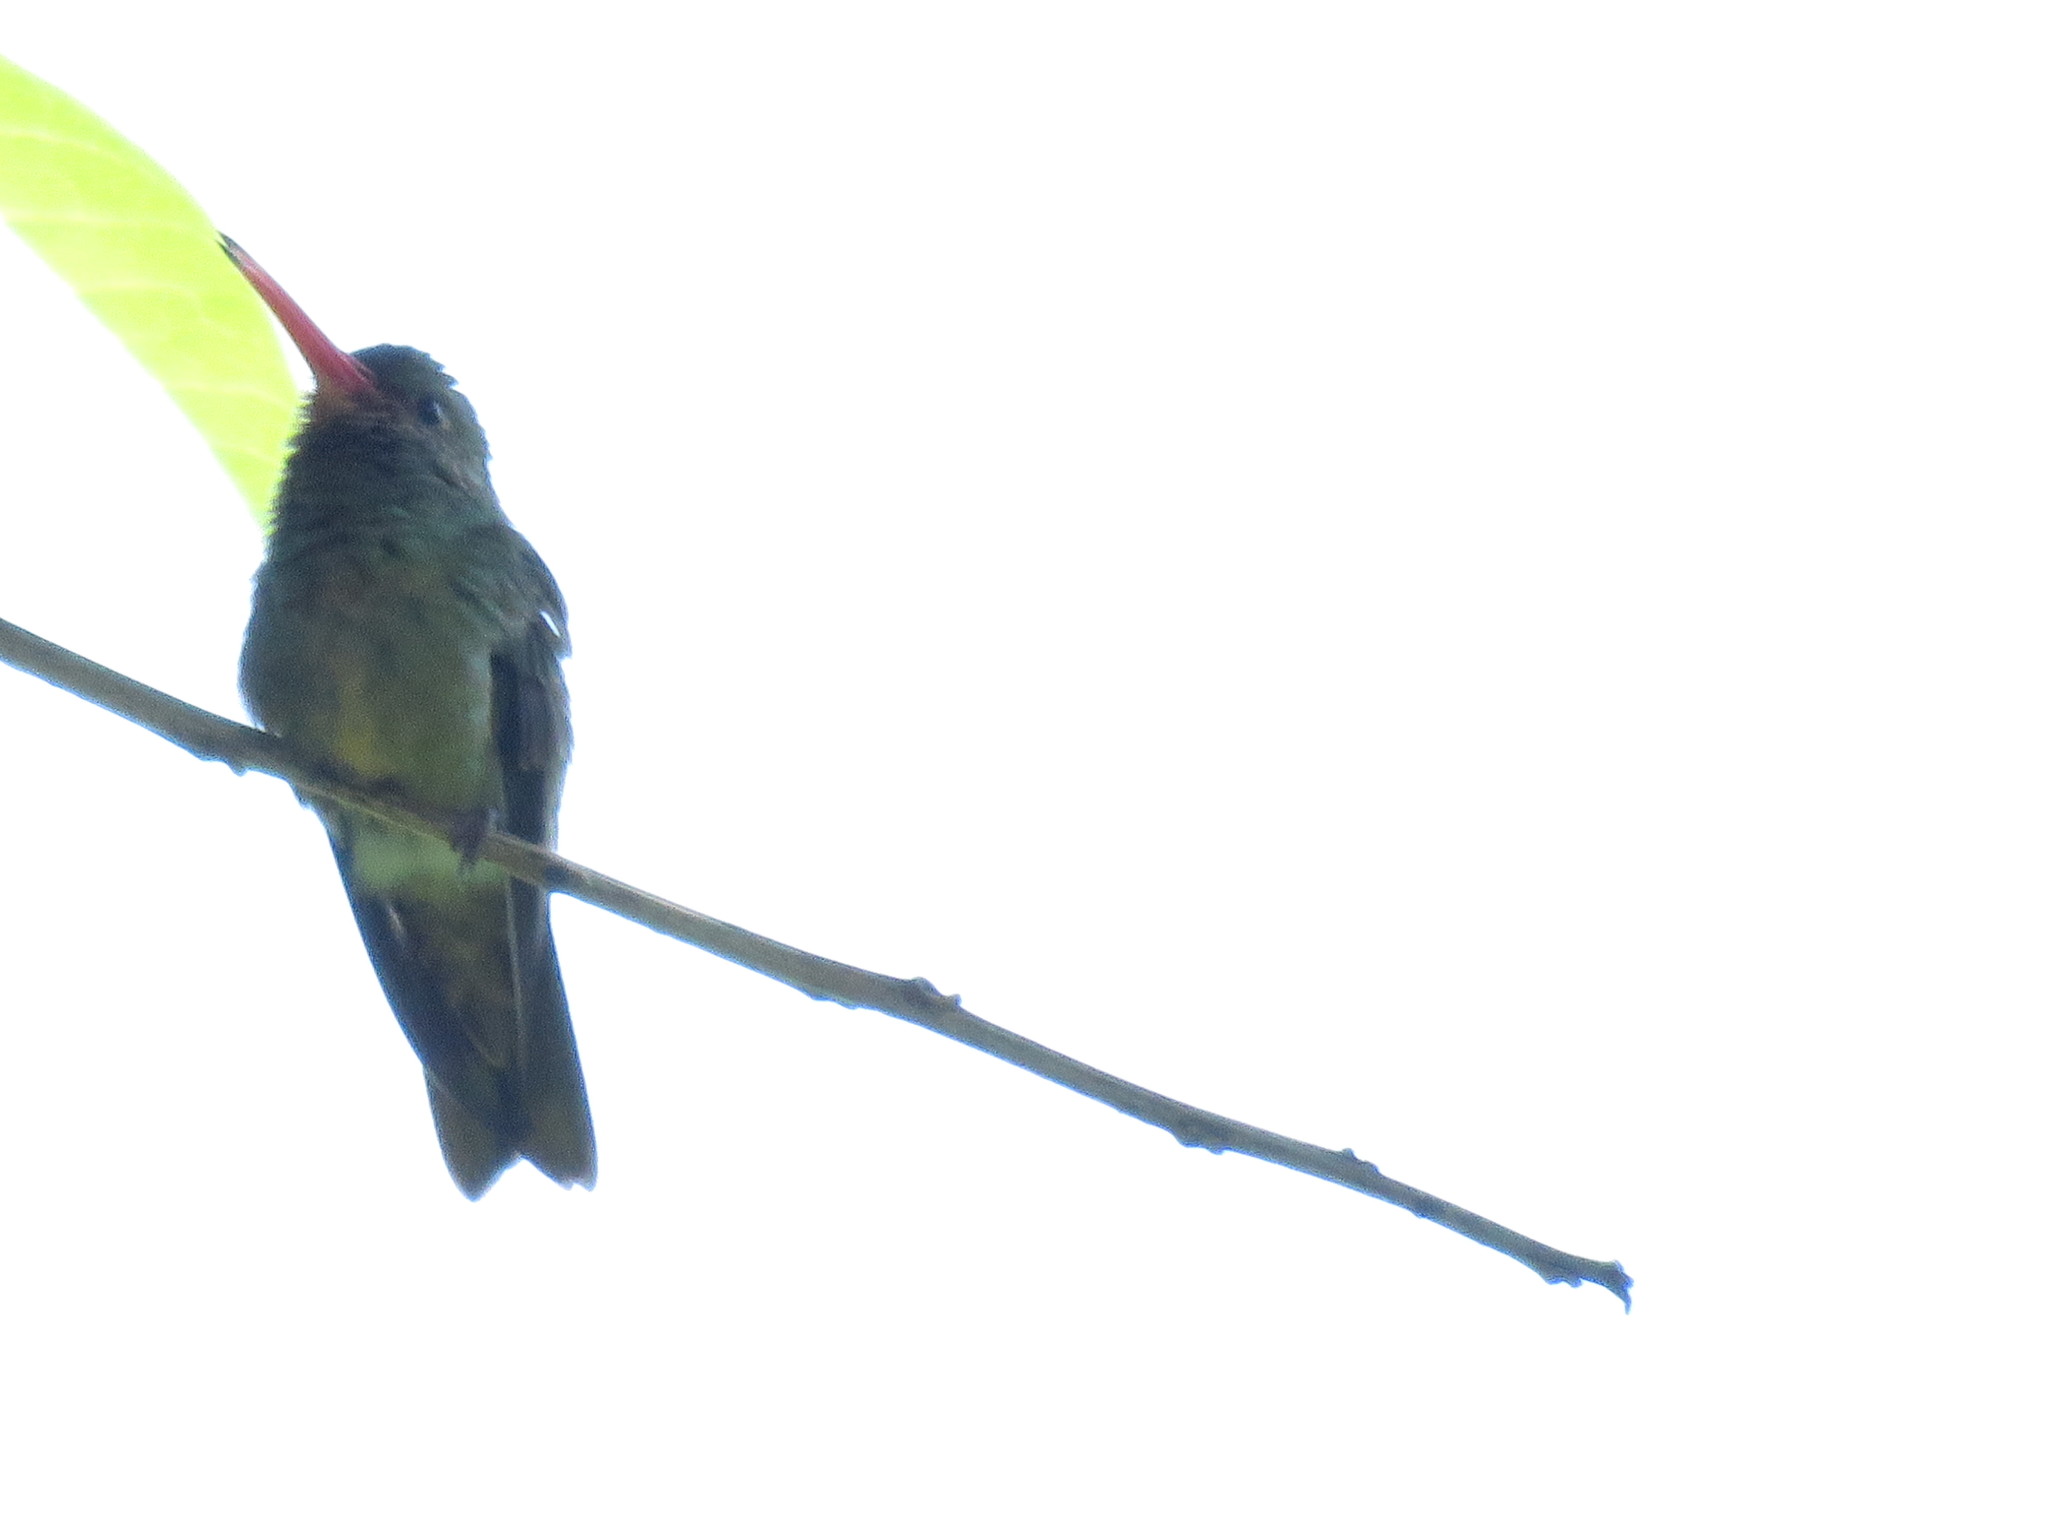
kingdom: Animalia
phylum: Chordata
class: Aves
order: Apodiformes
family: Trochilidae
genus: Hylocharis
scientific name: Hylocharis chrysura
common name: Gilded sapphire
